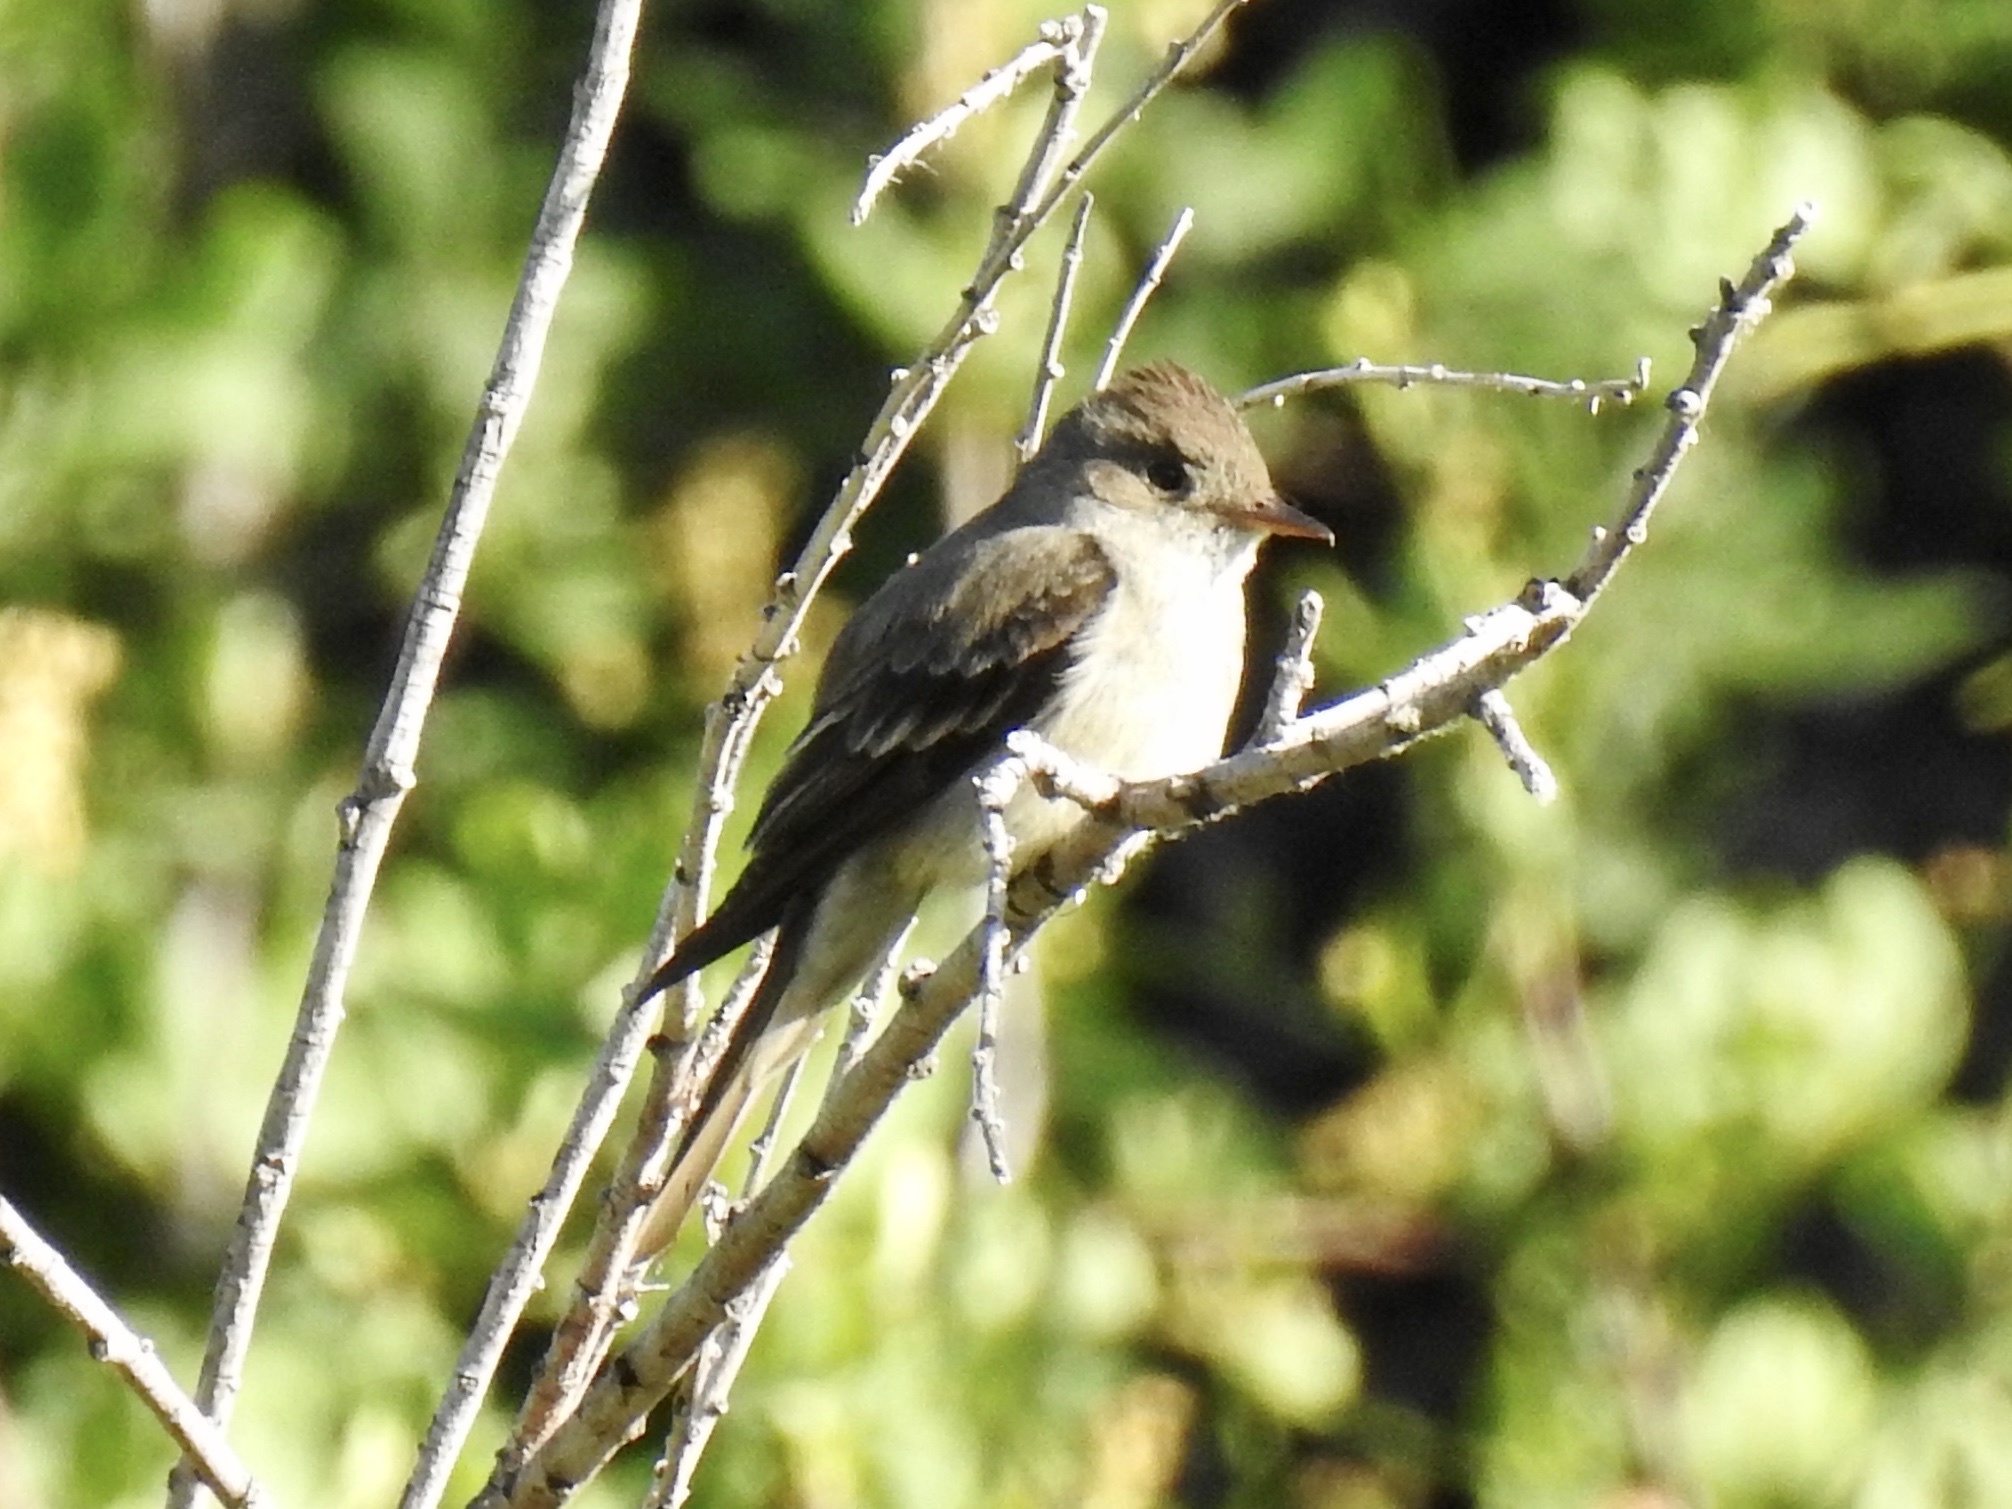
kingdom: Animalia
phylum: Chordata
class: Aves
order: Passeriformes
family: Tyrannidae
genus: Contopus
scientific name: Contopus sordidulus
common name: Western wood-pewee
